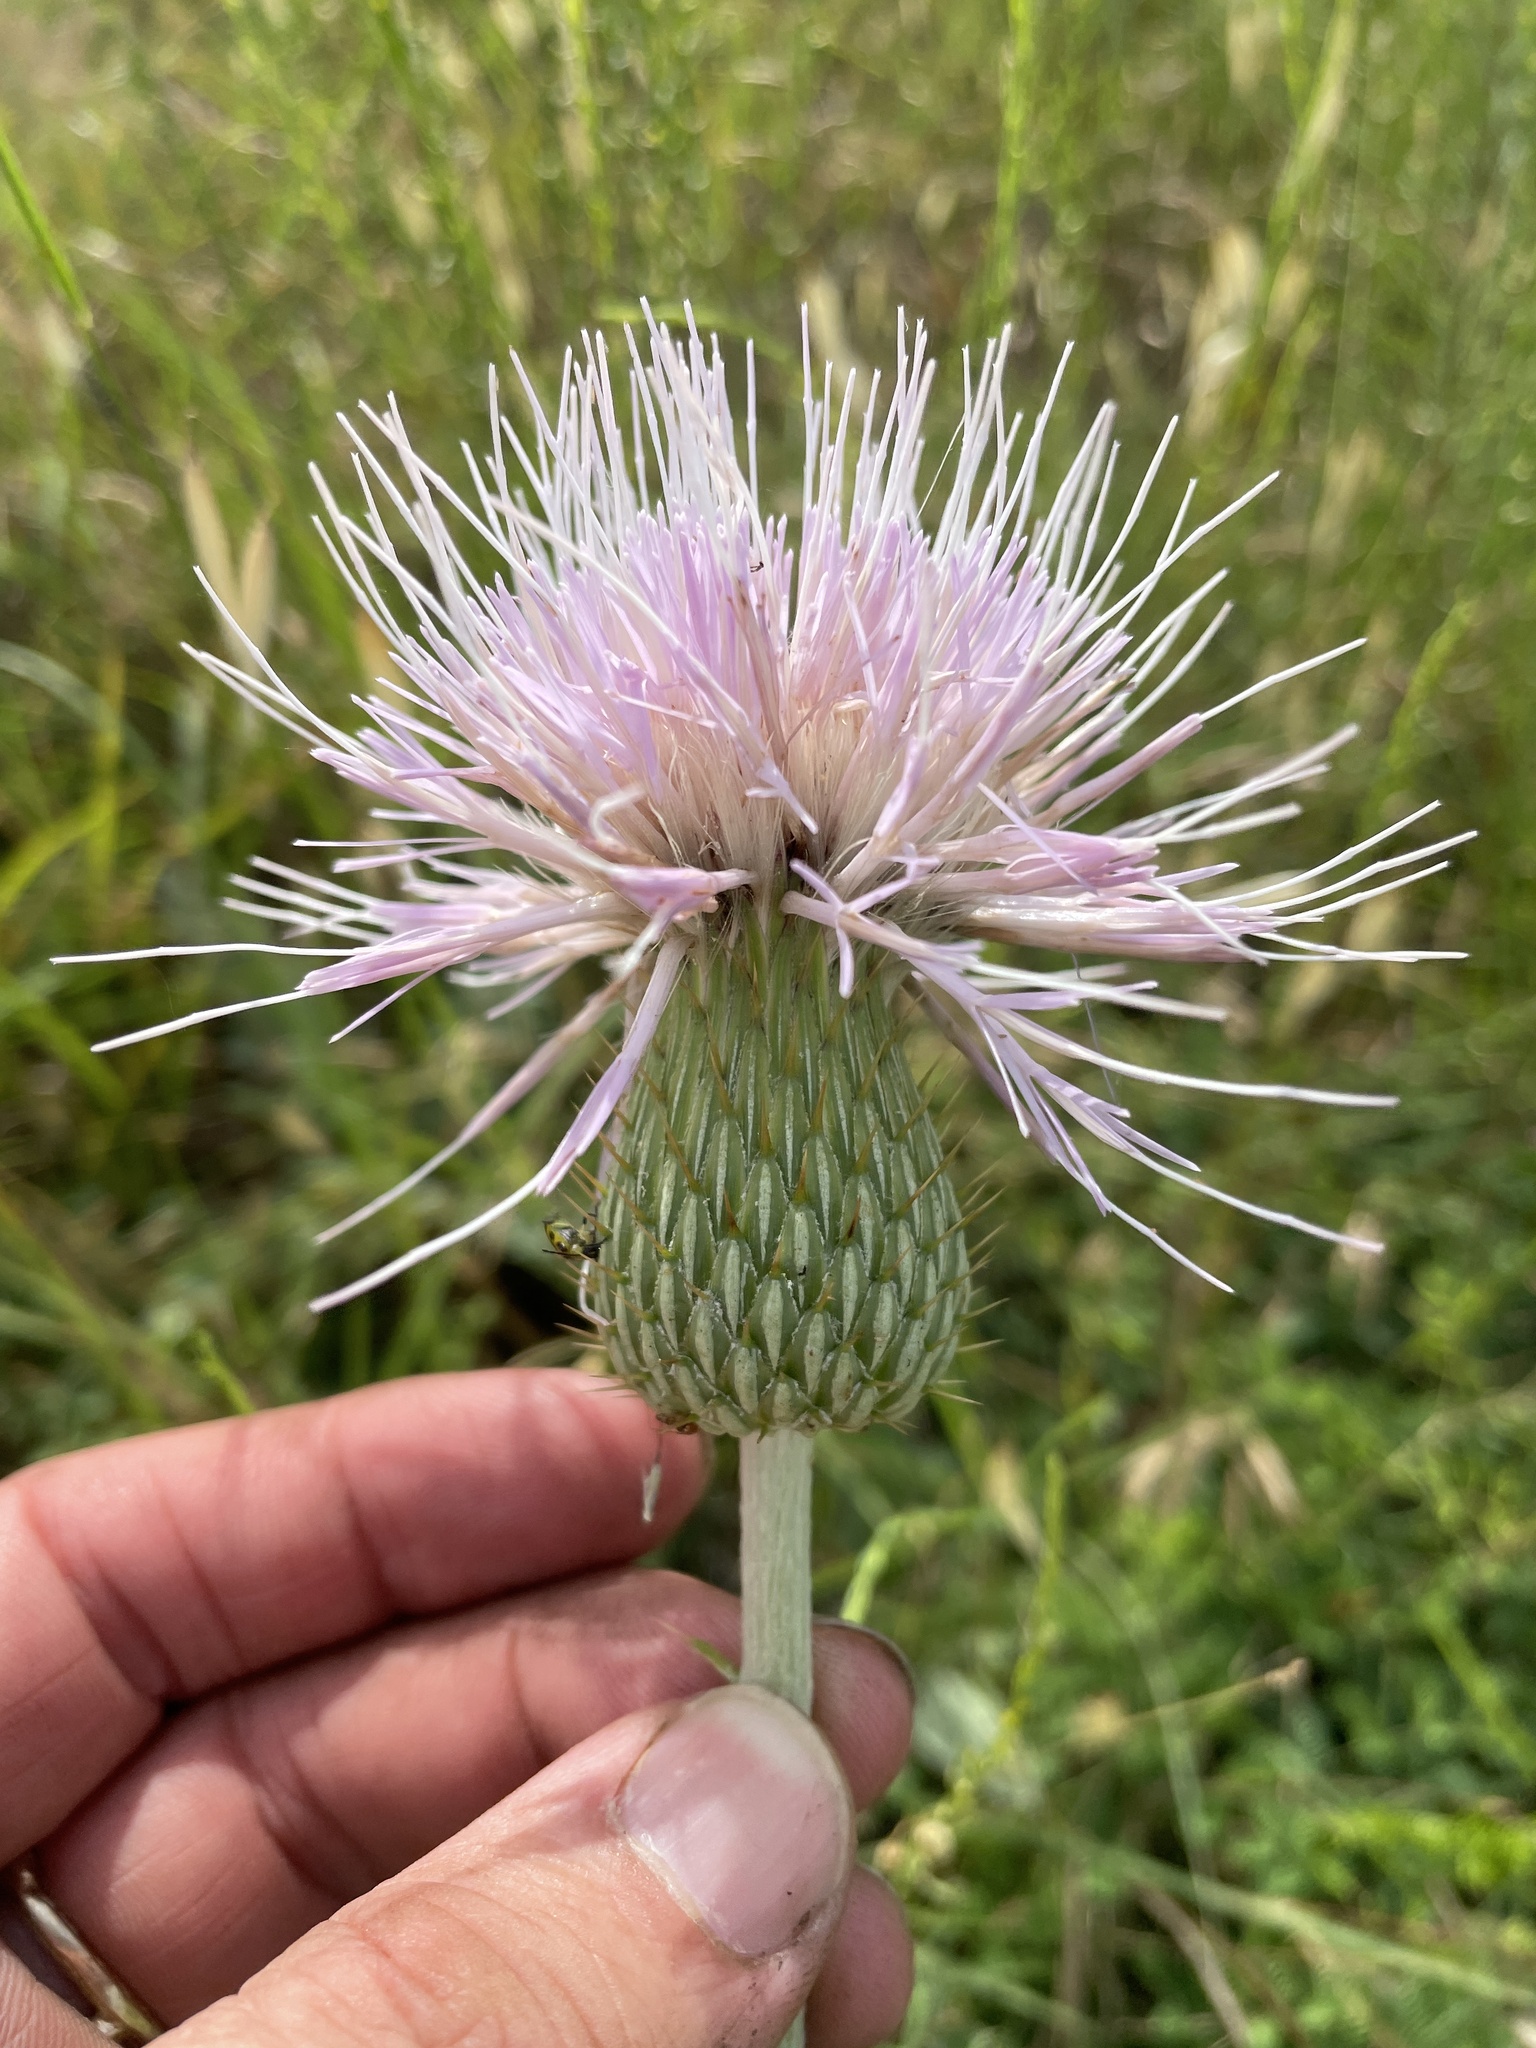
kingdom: Plantae
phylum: Tracheophyta
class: Magnoliopsida
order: Asterales
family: Asteraceae
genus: Cirsium
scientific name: Cirsium undulatum
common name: Pasture thistle
